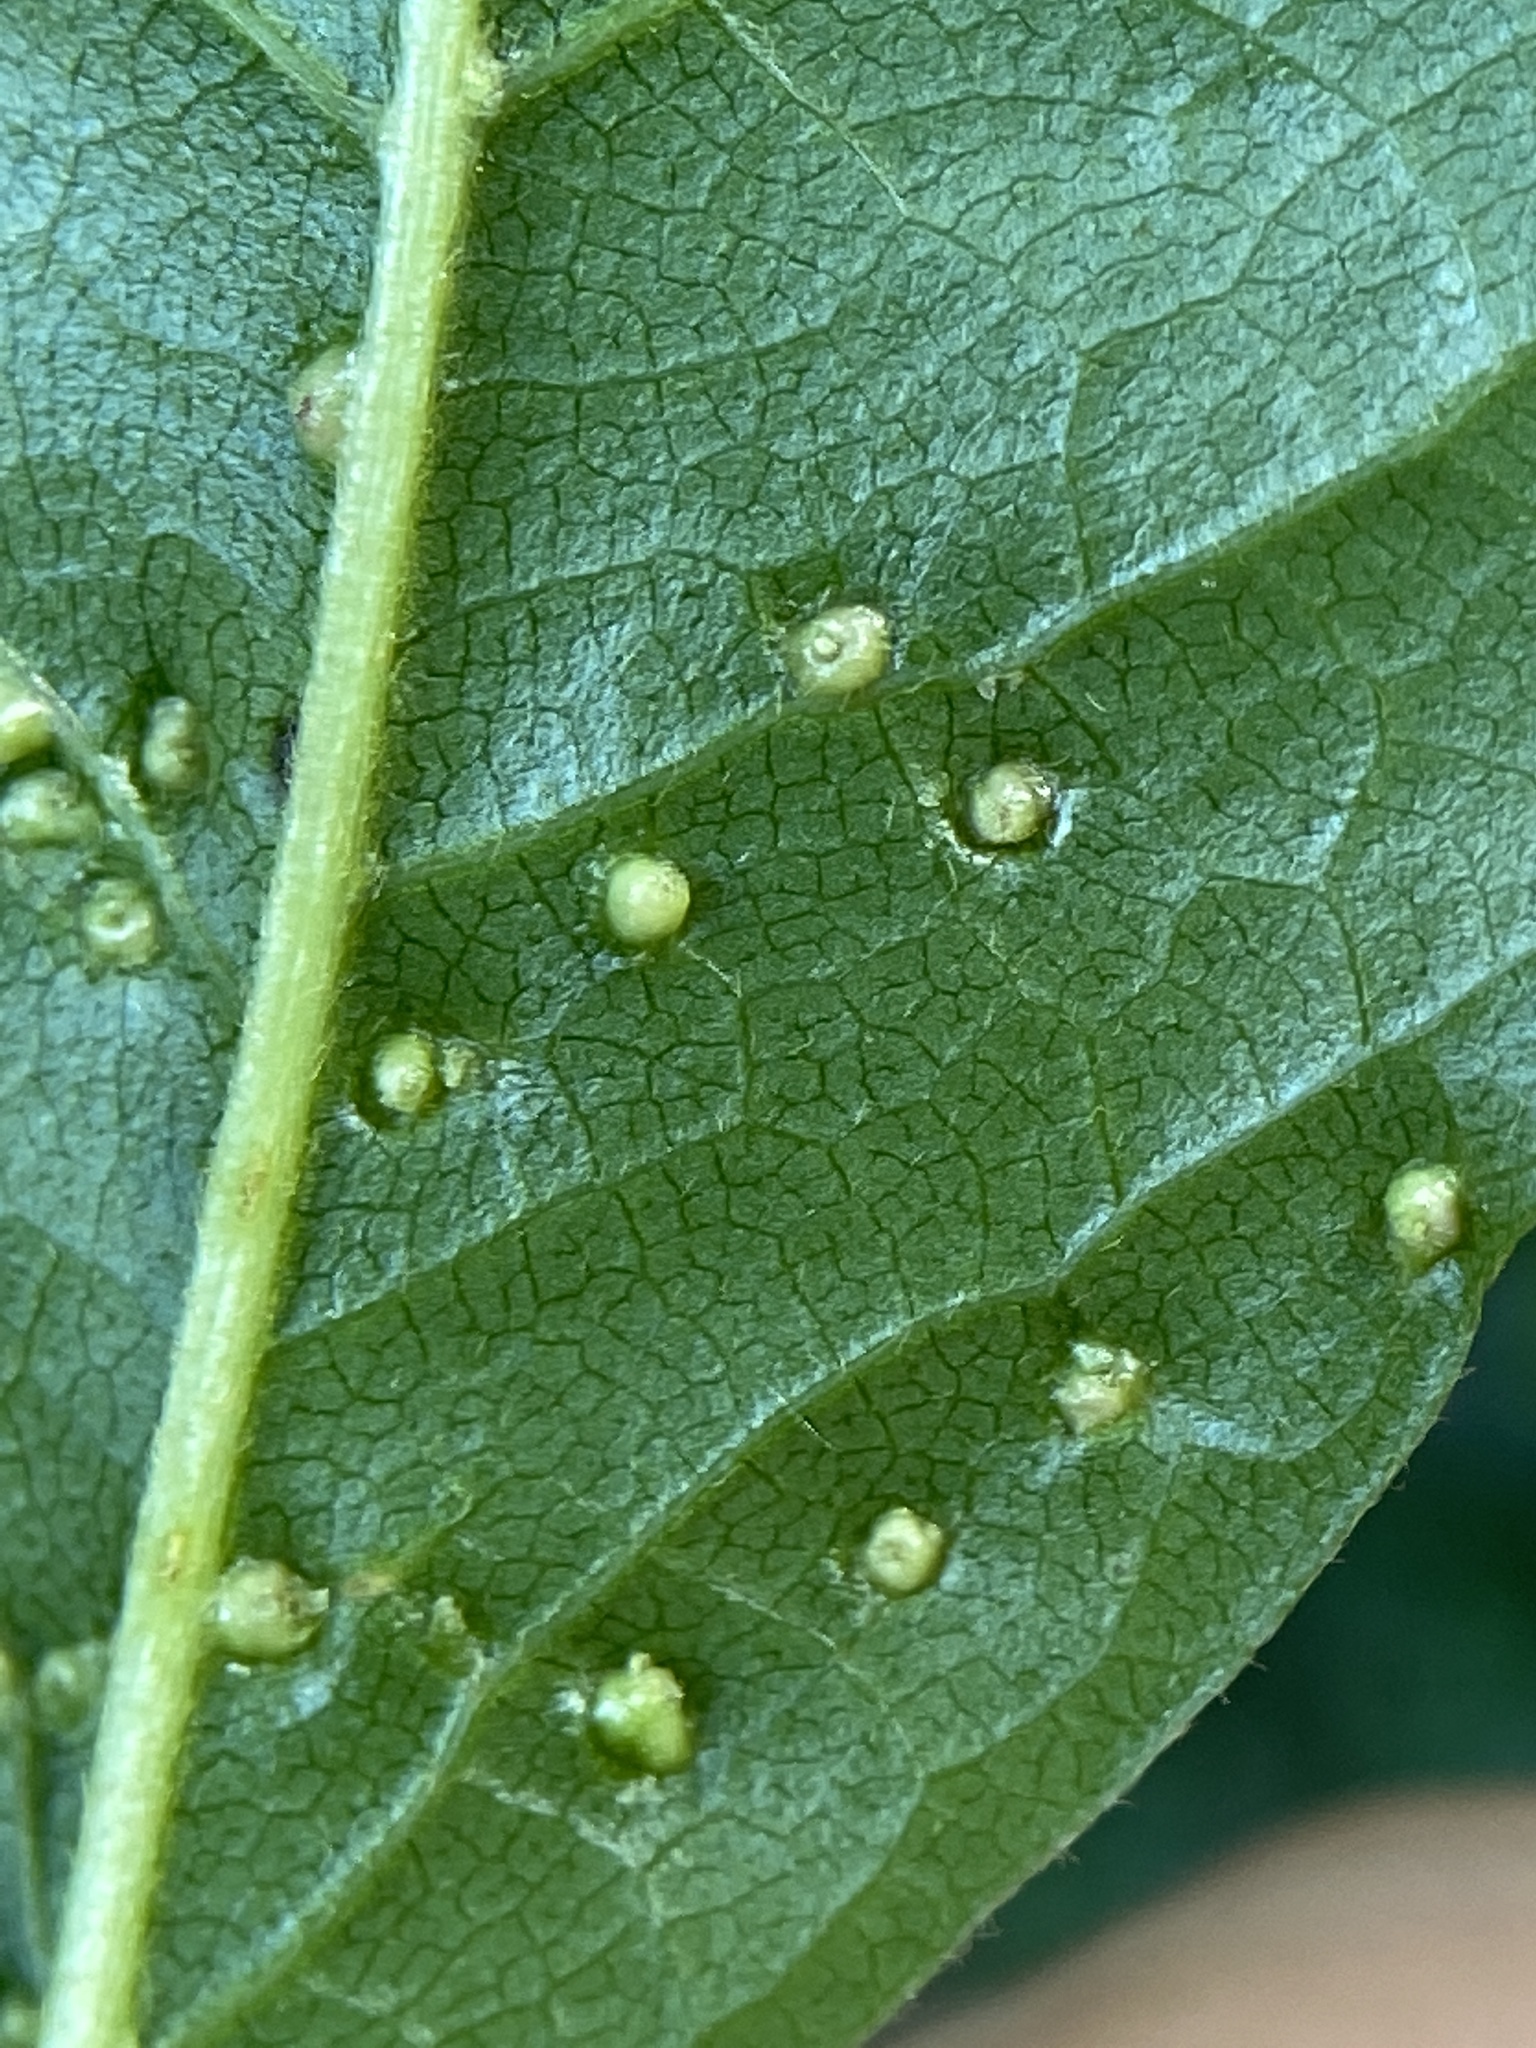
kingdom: Animalia
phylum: Arthropoda
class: Arachnida
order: Trombidiformes
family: Eriophyidae
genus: Aceria
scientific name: Aceria
